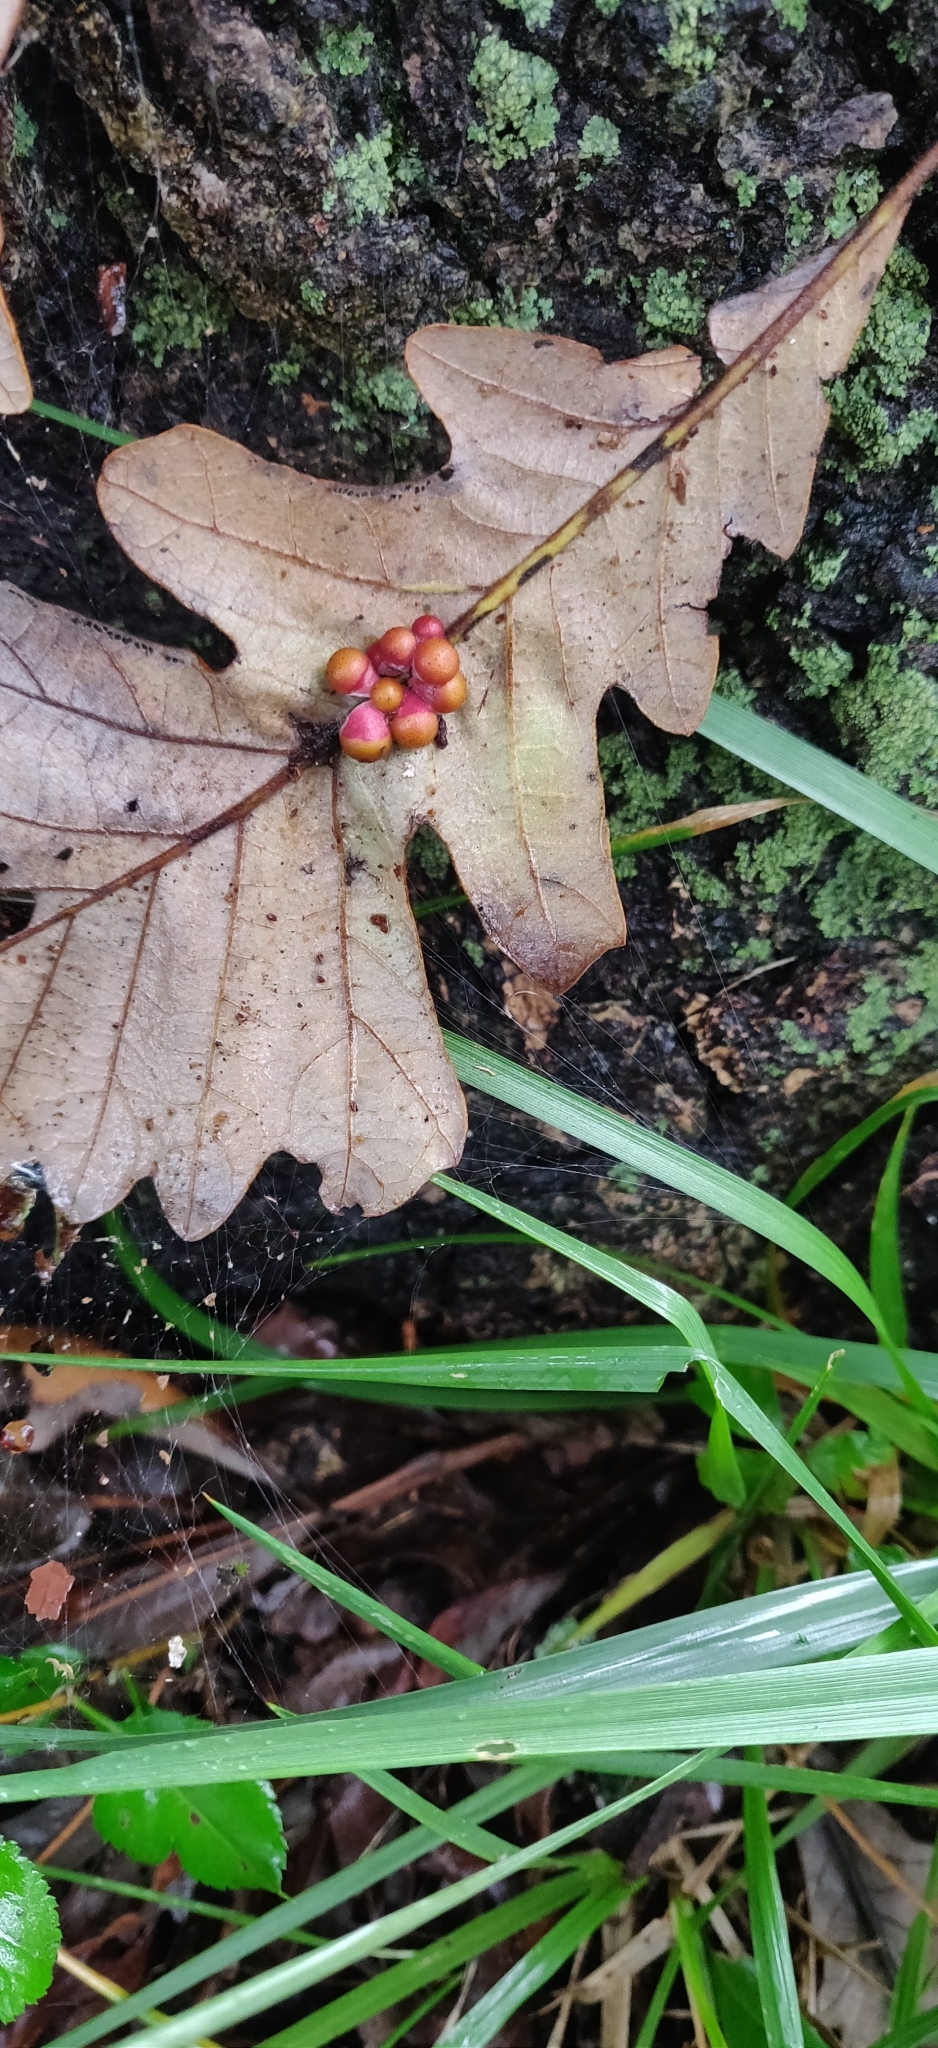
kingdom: Animalia
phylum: Arthropoda
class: Insecta
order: Hymenoptera
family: Cynipidae
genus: Andricus
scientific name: Andricus
